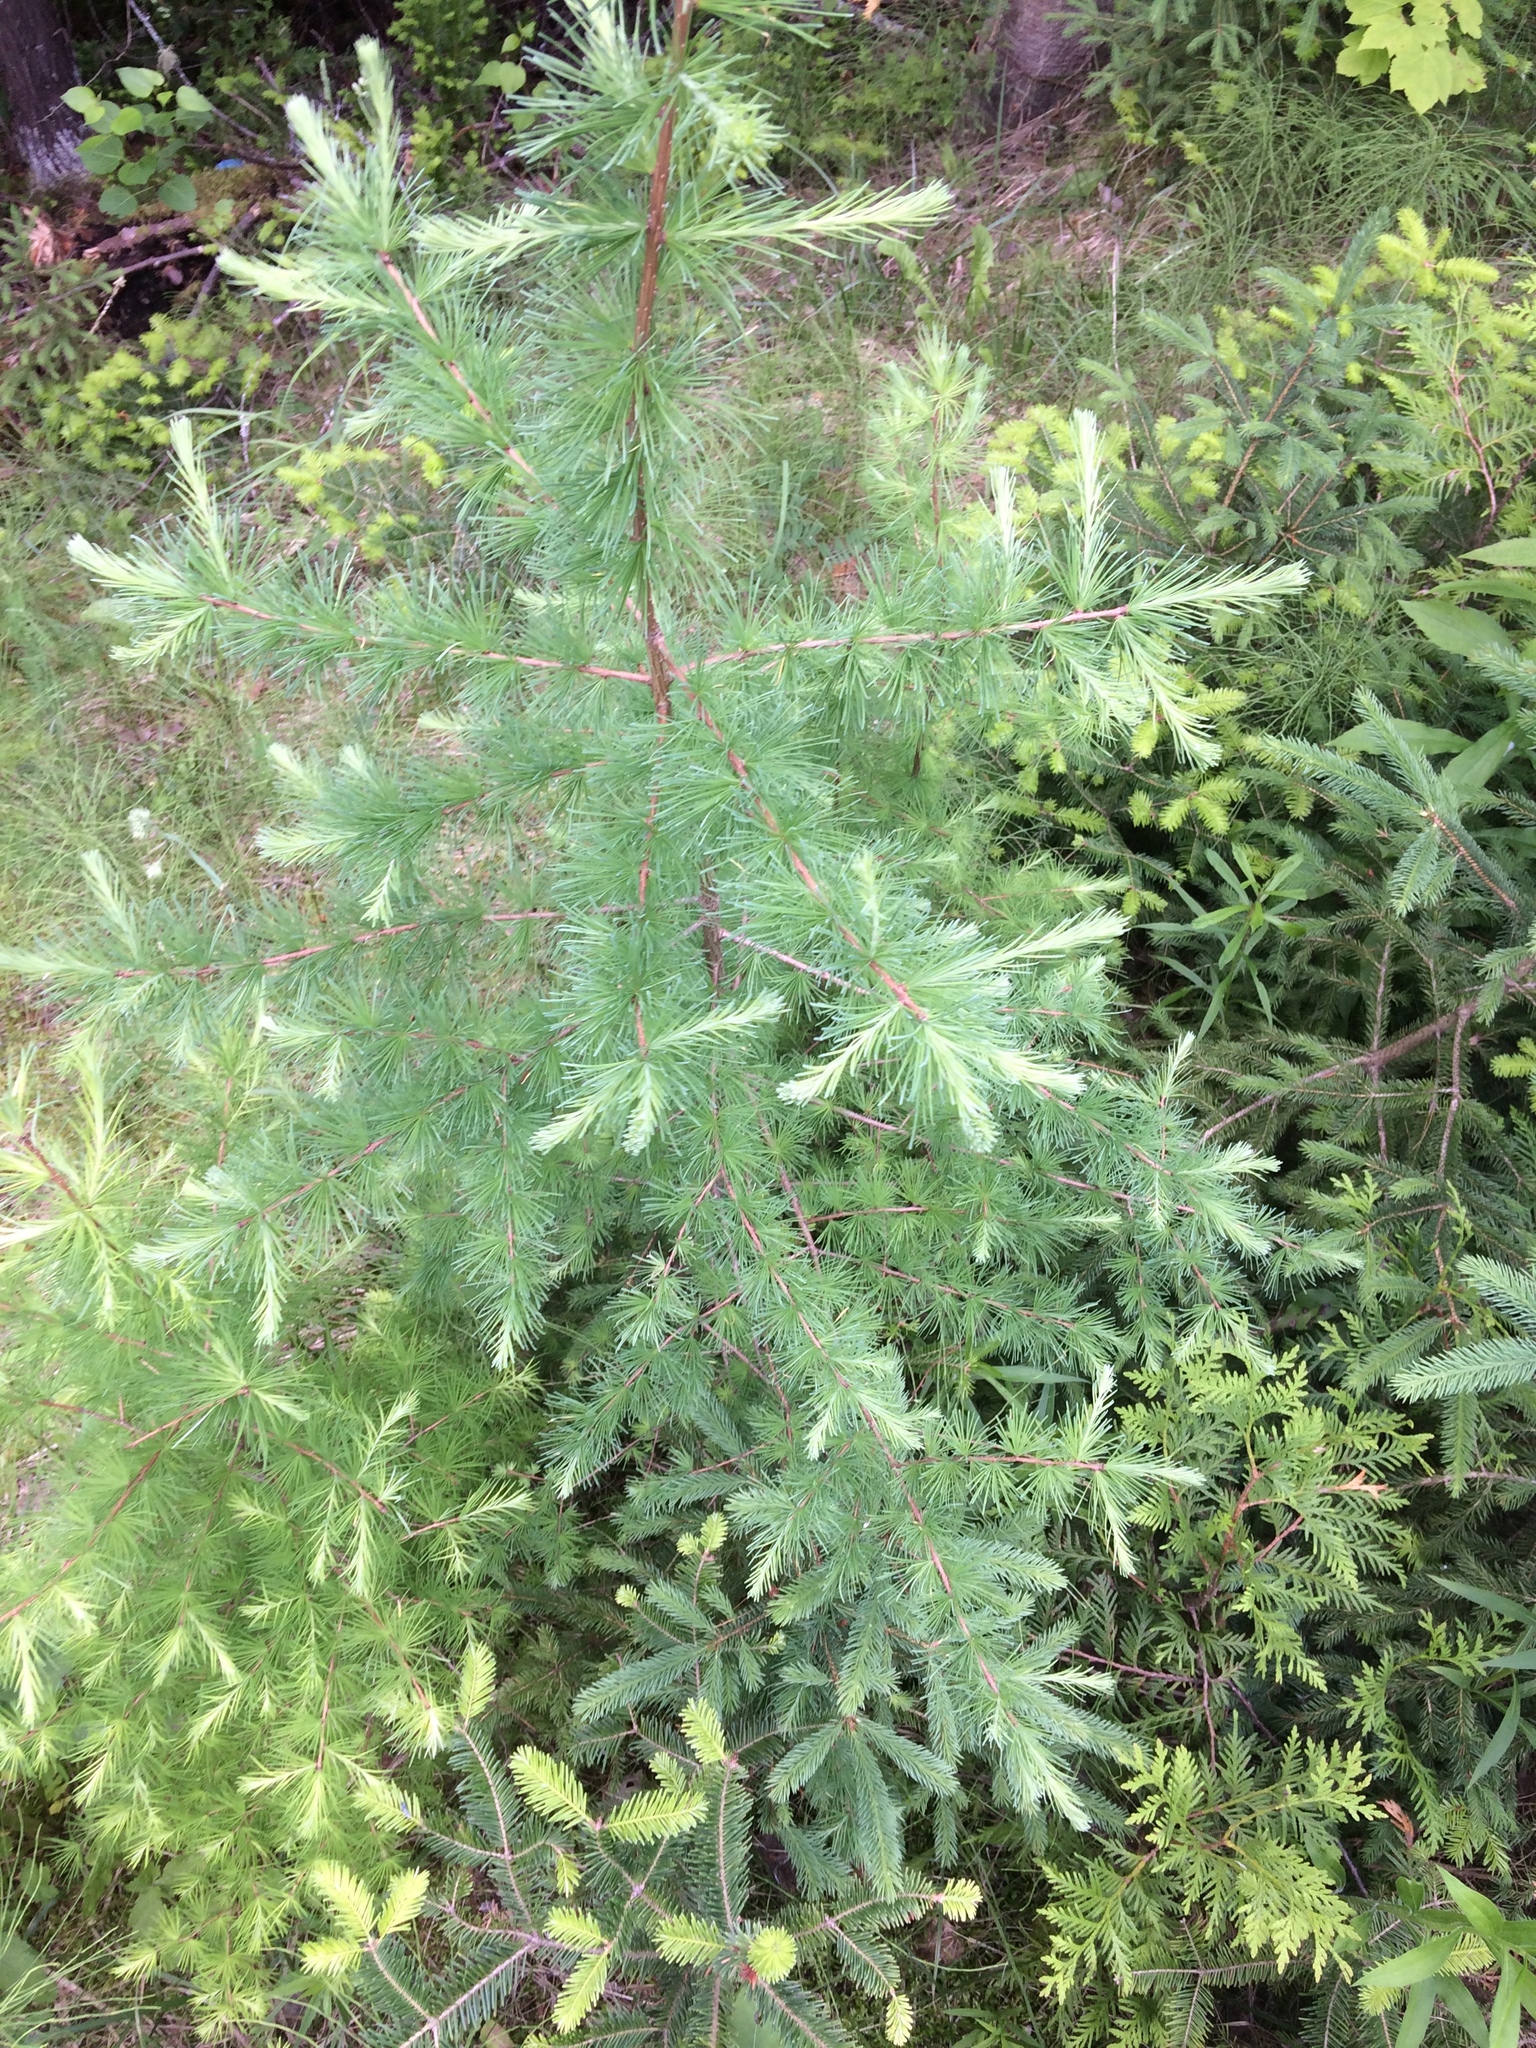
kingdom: Plantae
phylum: Tracheophyta
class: Pinopsida
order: Pinales
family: Pinaceae
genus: Larix
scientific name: Larix laricina
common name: American larch
